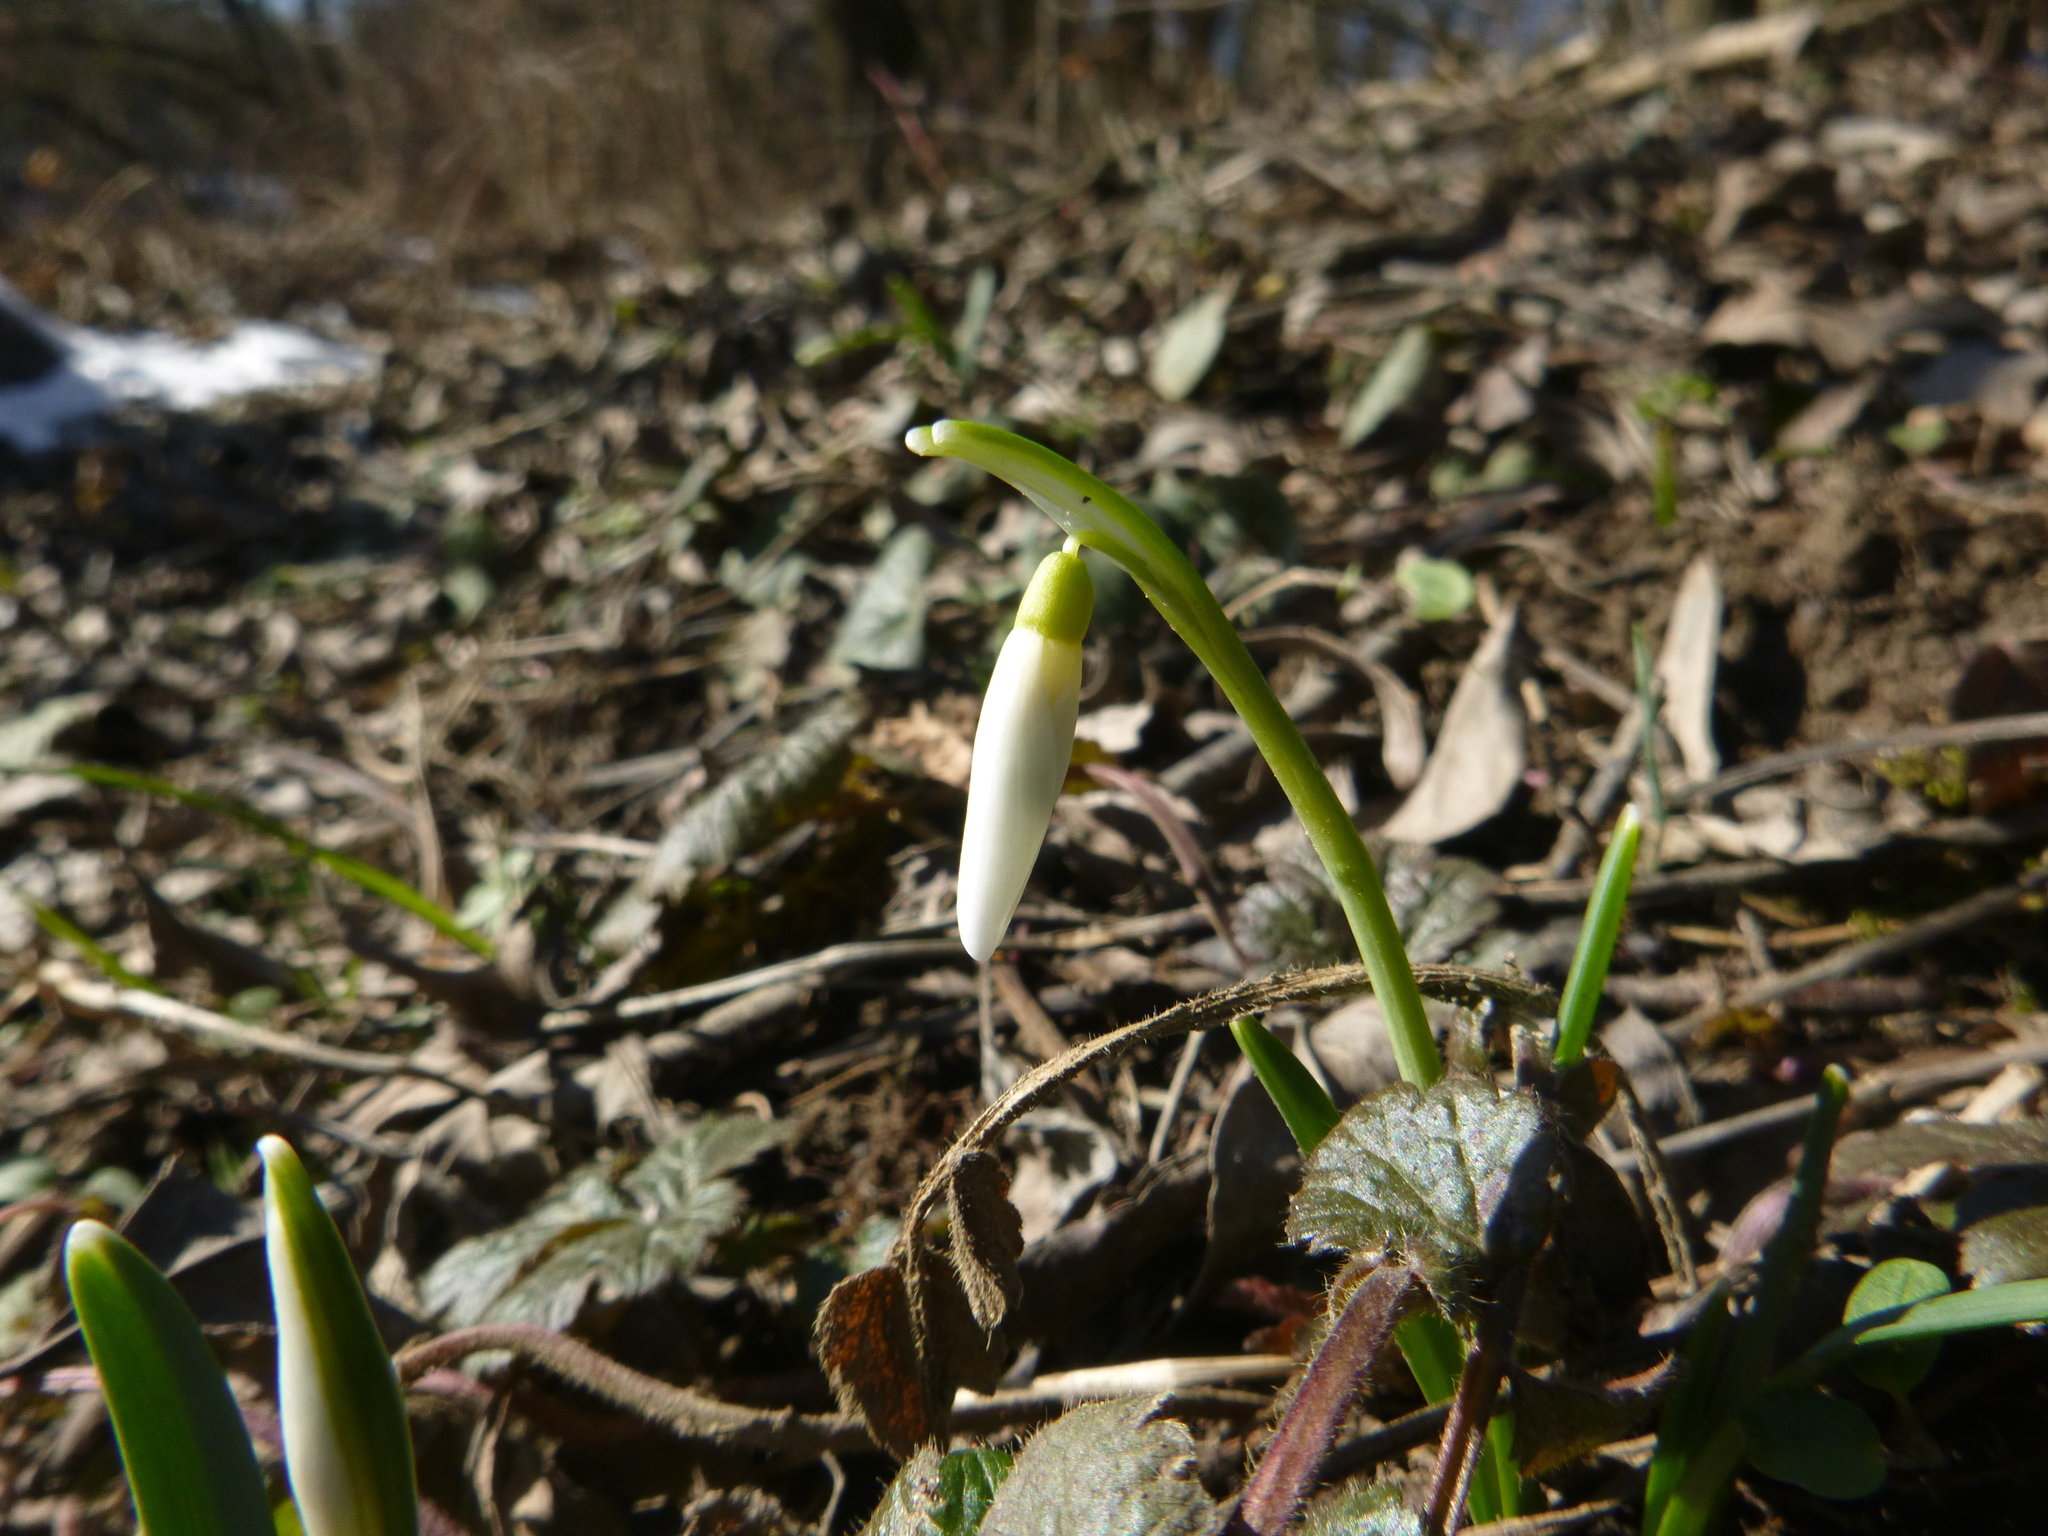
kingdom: Plantae
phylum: Tracheophyta
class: Liliopsida
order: Asparagales
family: Amaryllidaceae
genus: Galanthus
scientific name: Galanthus nivalis
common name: Snowdrop
